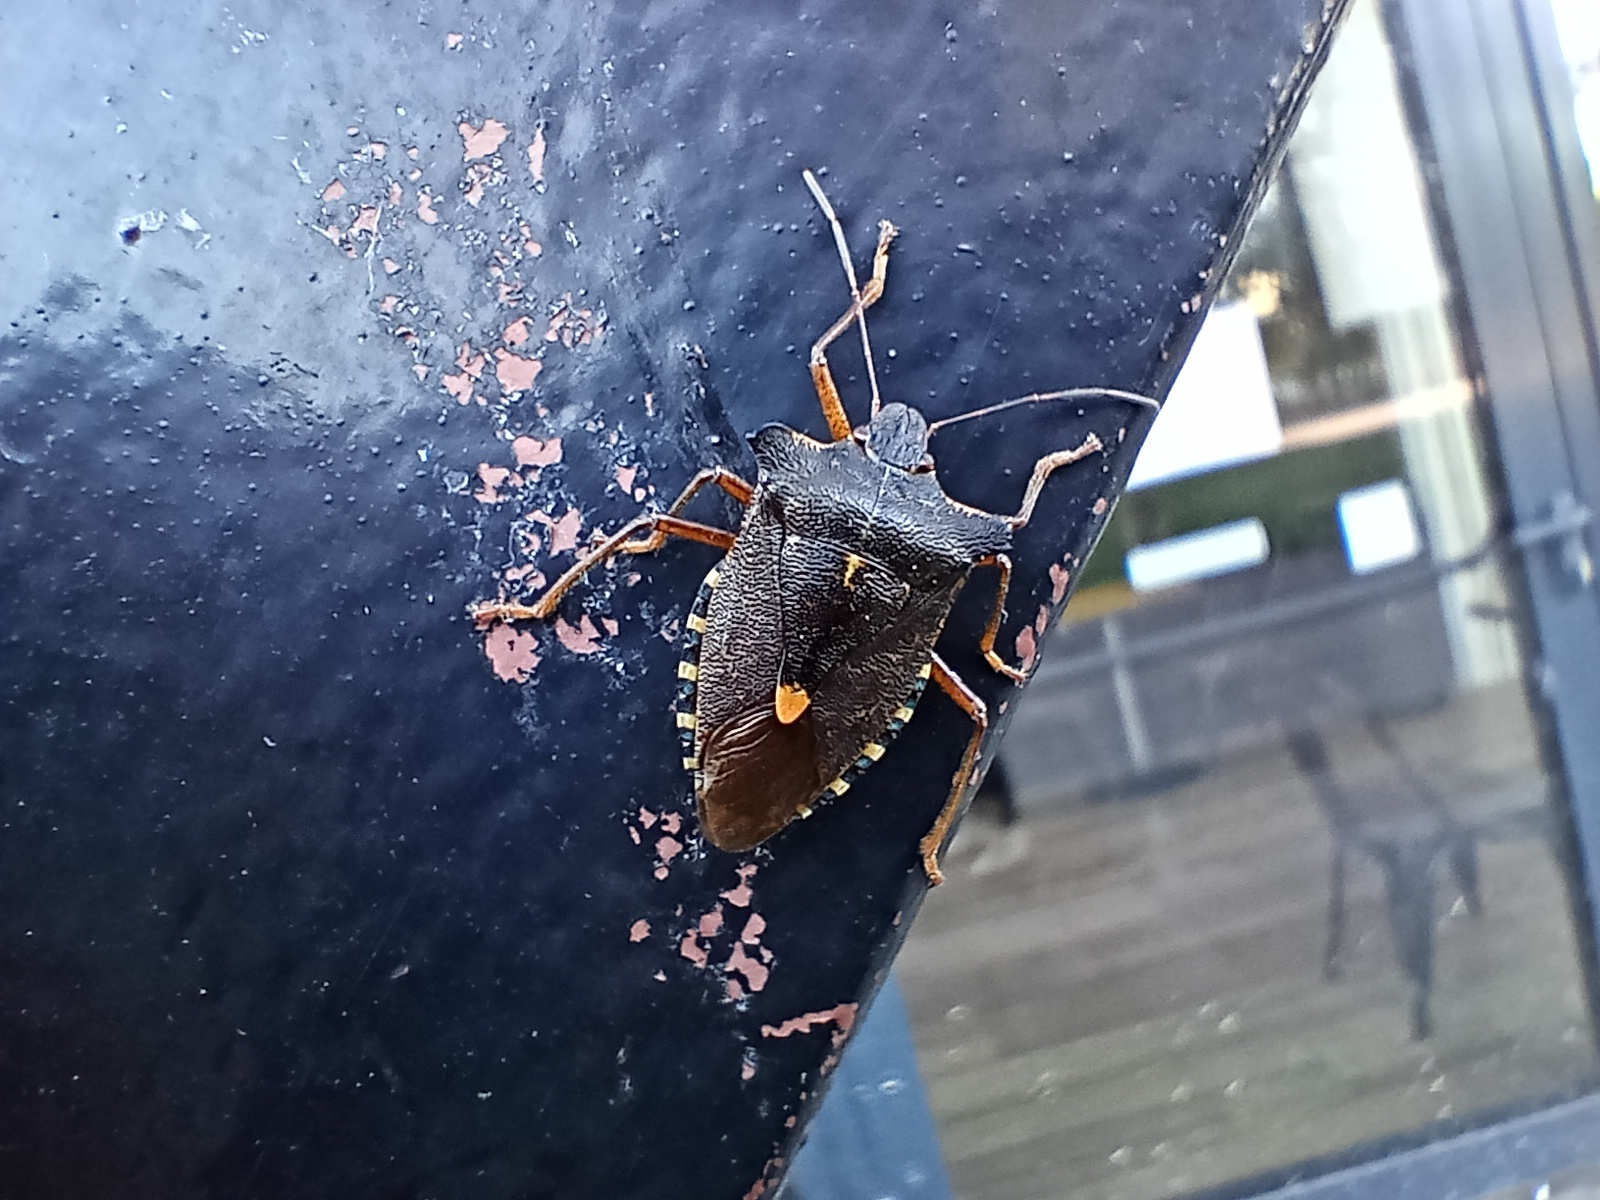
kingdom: Animalia
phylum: Arthropoda
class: Insecta
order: Hemiptera
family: Pentatomidae
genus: Pentatoma
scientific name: Pentatoma rufipes
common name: Forest bug
